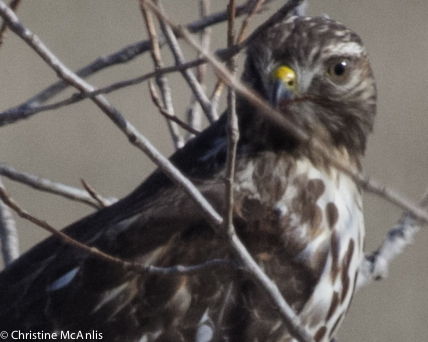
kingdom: Animalia
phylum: Chordata
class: Aves
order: Accipitriformes
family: Accipitridae
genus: Buteo
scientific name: Buteo lineatus
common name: Red-shouldered hawk
